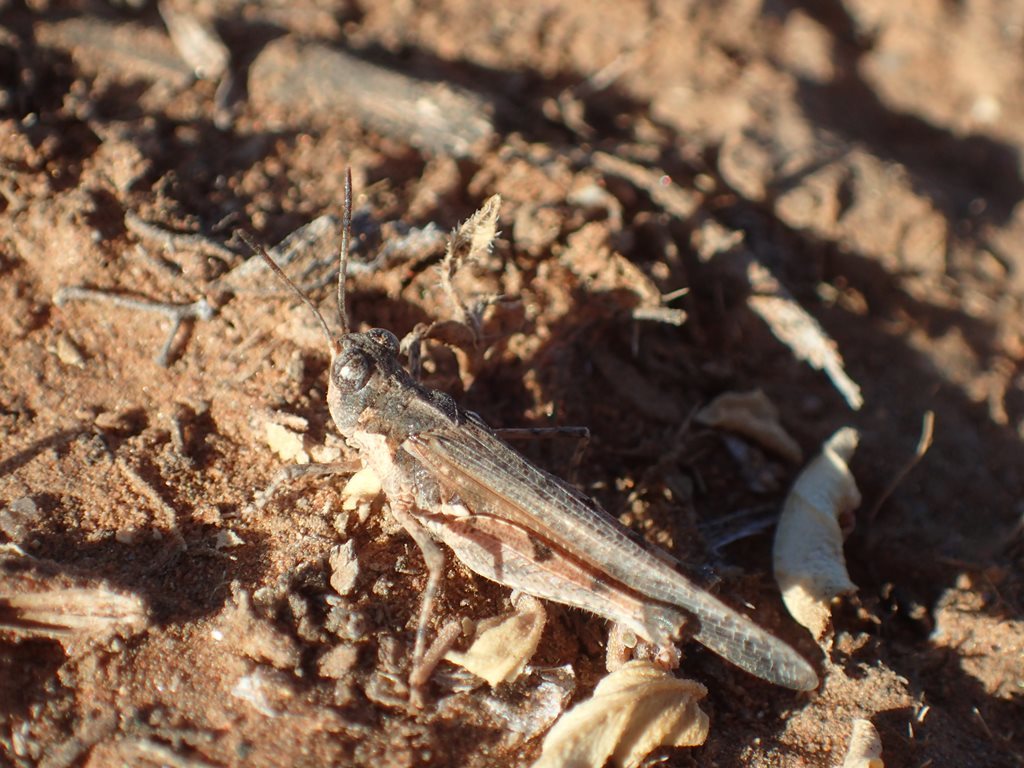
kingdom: Animalia
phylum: Arthropoda
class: Insecta
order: Orthoptera
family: Acrididae
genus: Pycnostictus
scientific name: Pycnostictus seriatus
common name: Common bandwing
